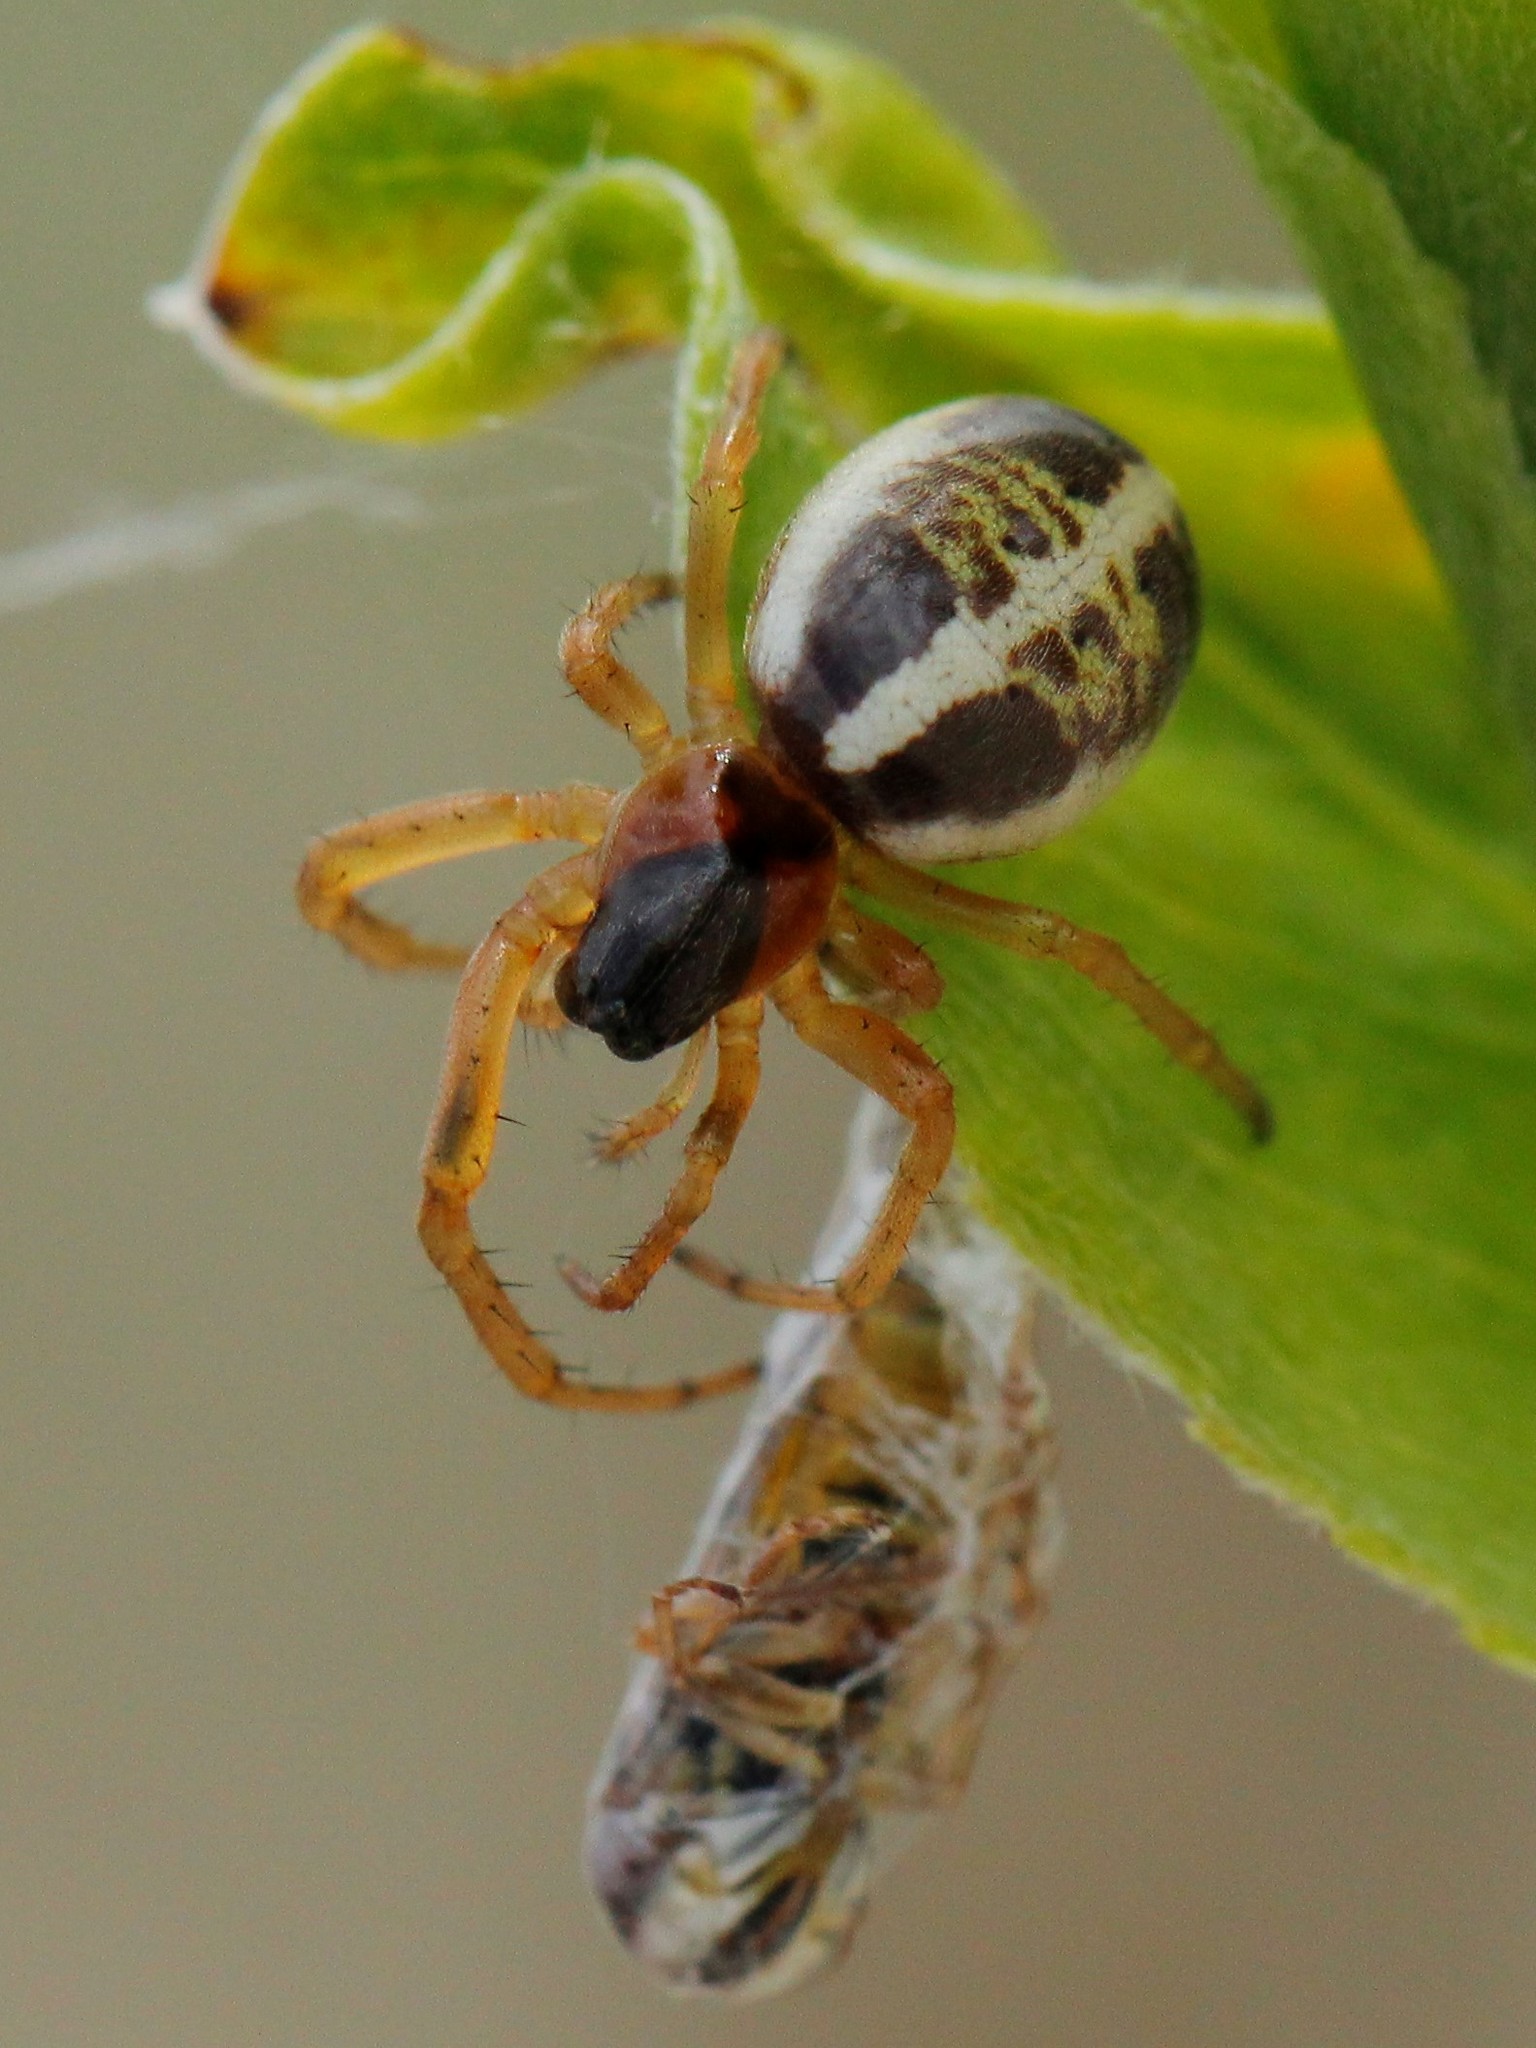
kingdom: Animalia
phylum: Arthropoda
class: Arachnida
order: Araneae
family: Araneidae
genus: Singa
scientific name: Singa lucina
